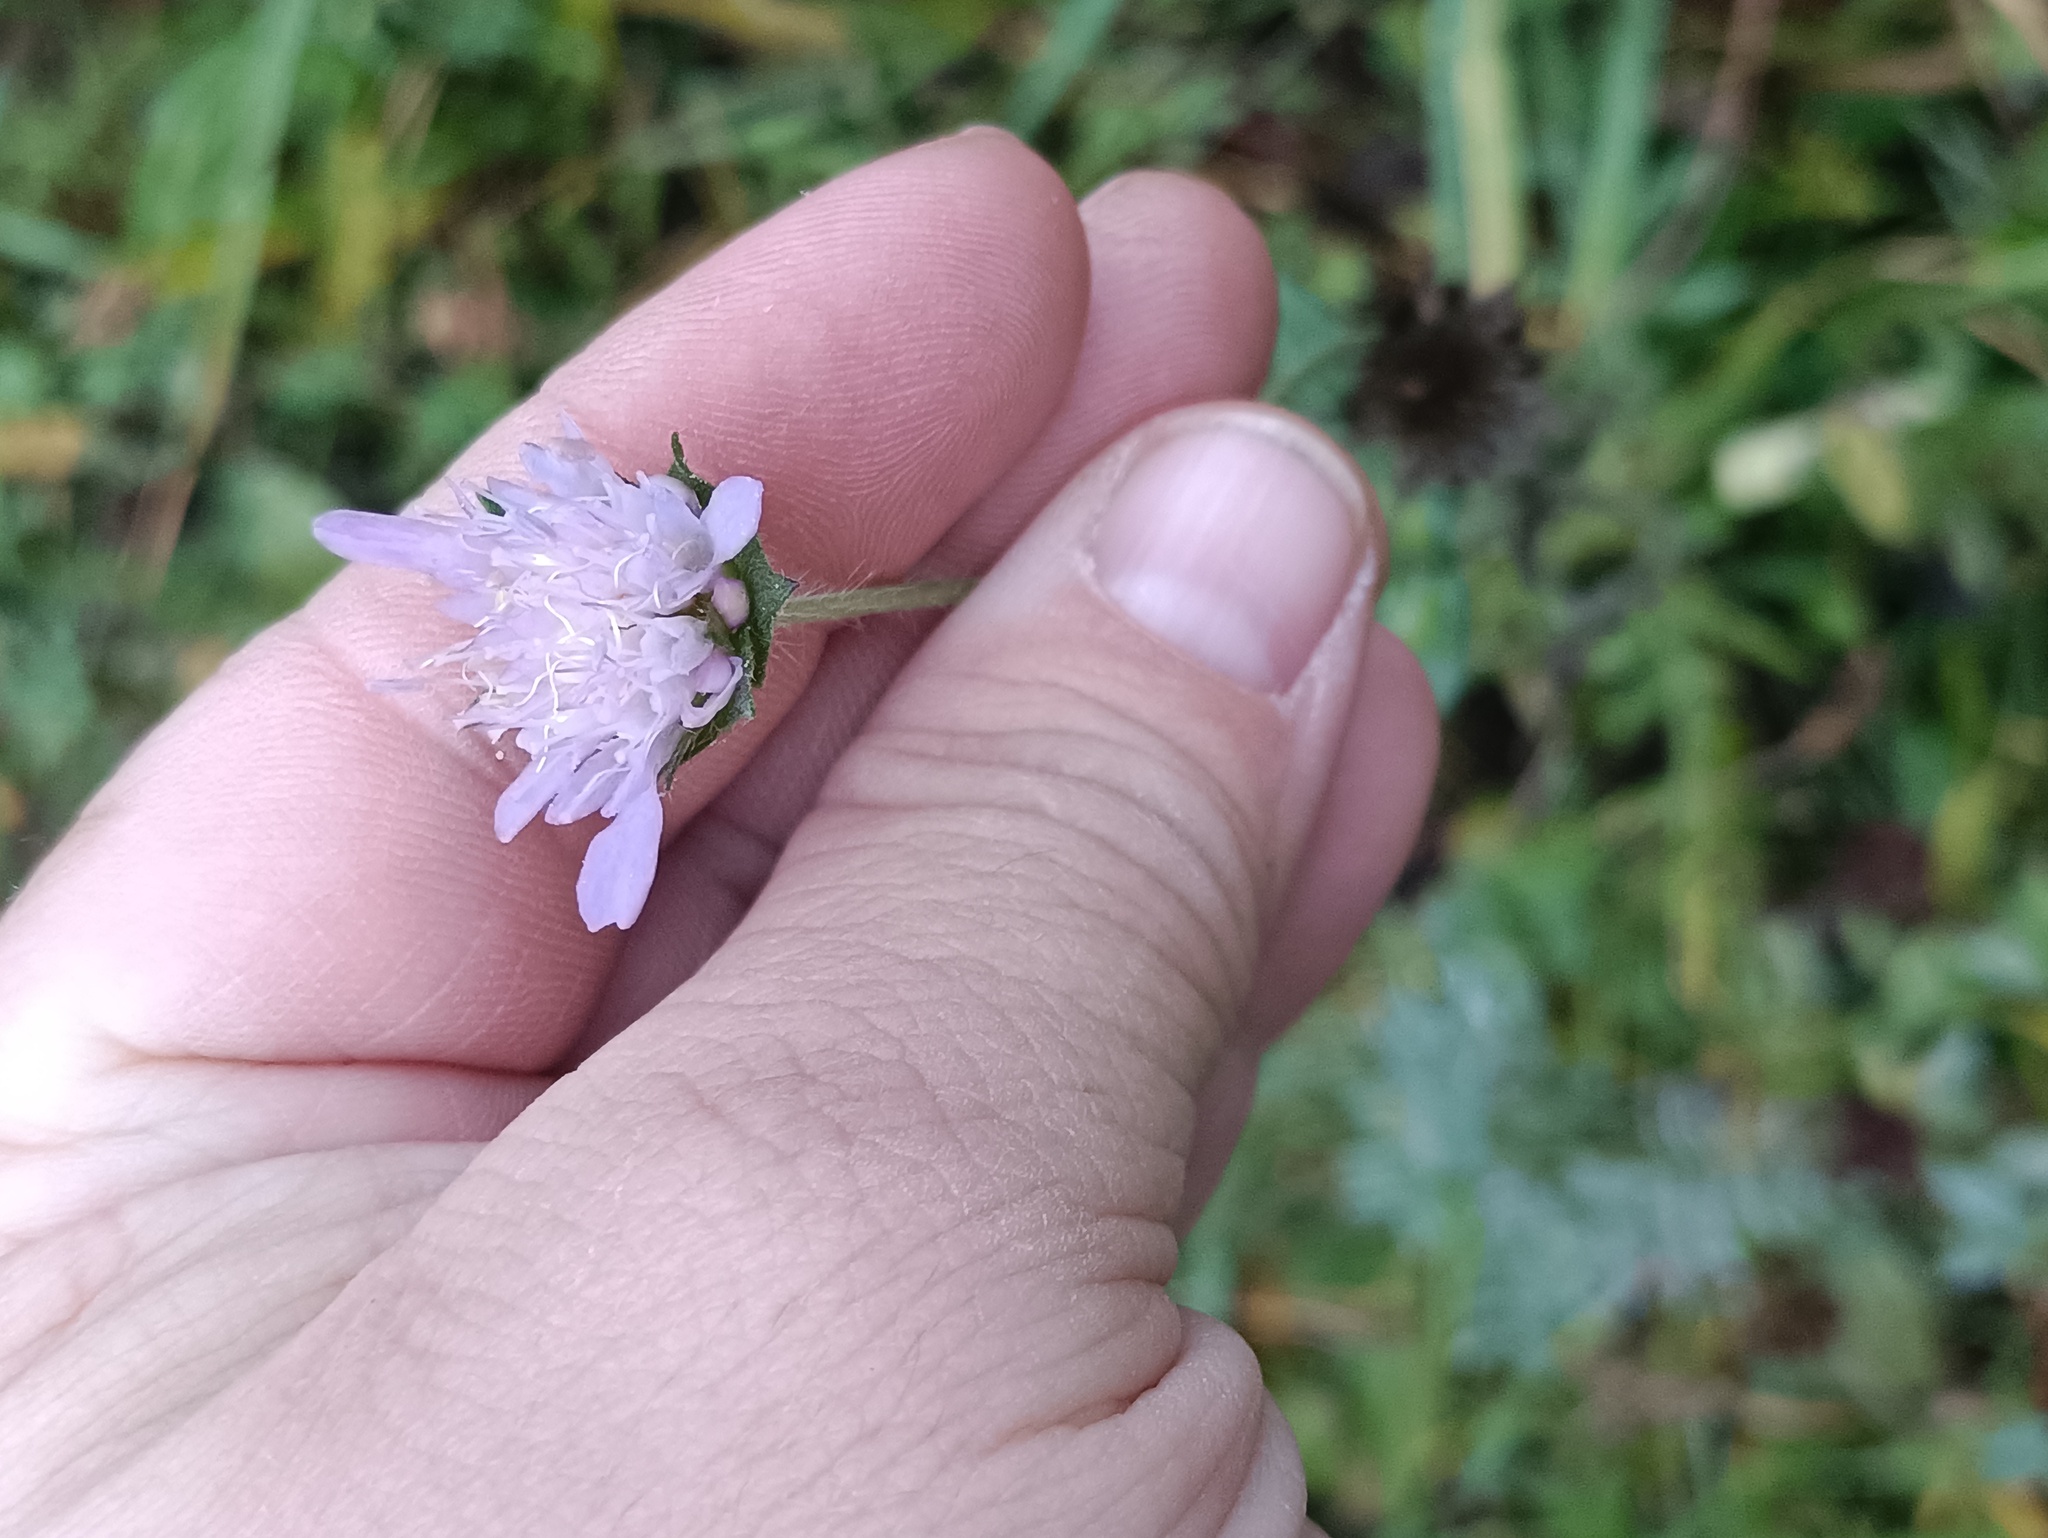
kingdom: Plantae
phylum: Tracheophyta
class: Magnoliopsida
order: Dipsacales
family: Caprifoliaceae
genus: Knautia
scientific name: Knautia arvensis
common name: Field scabiosa
